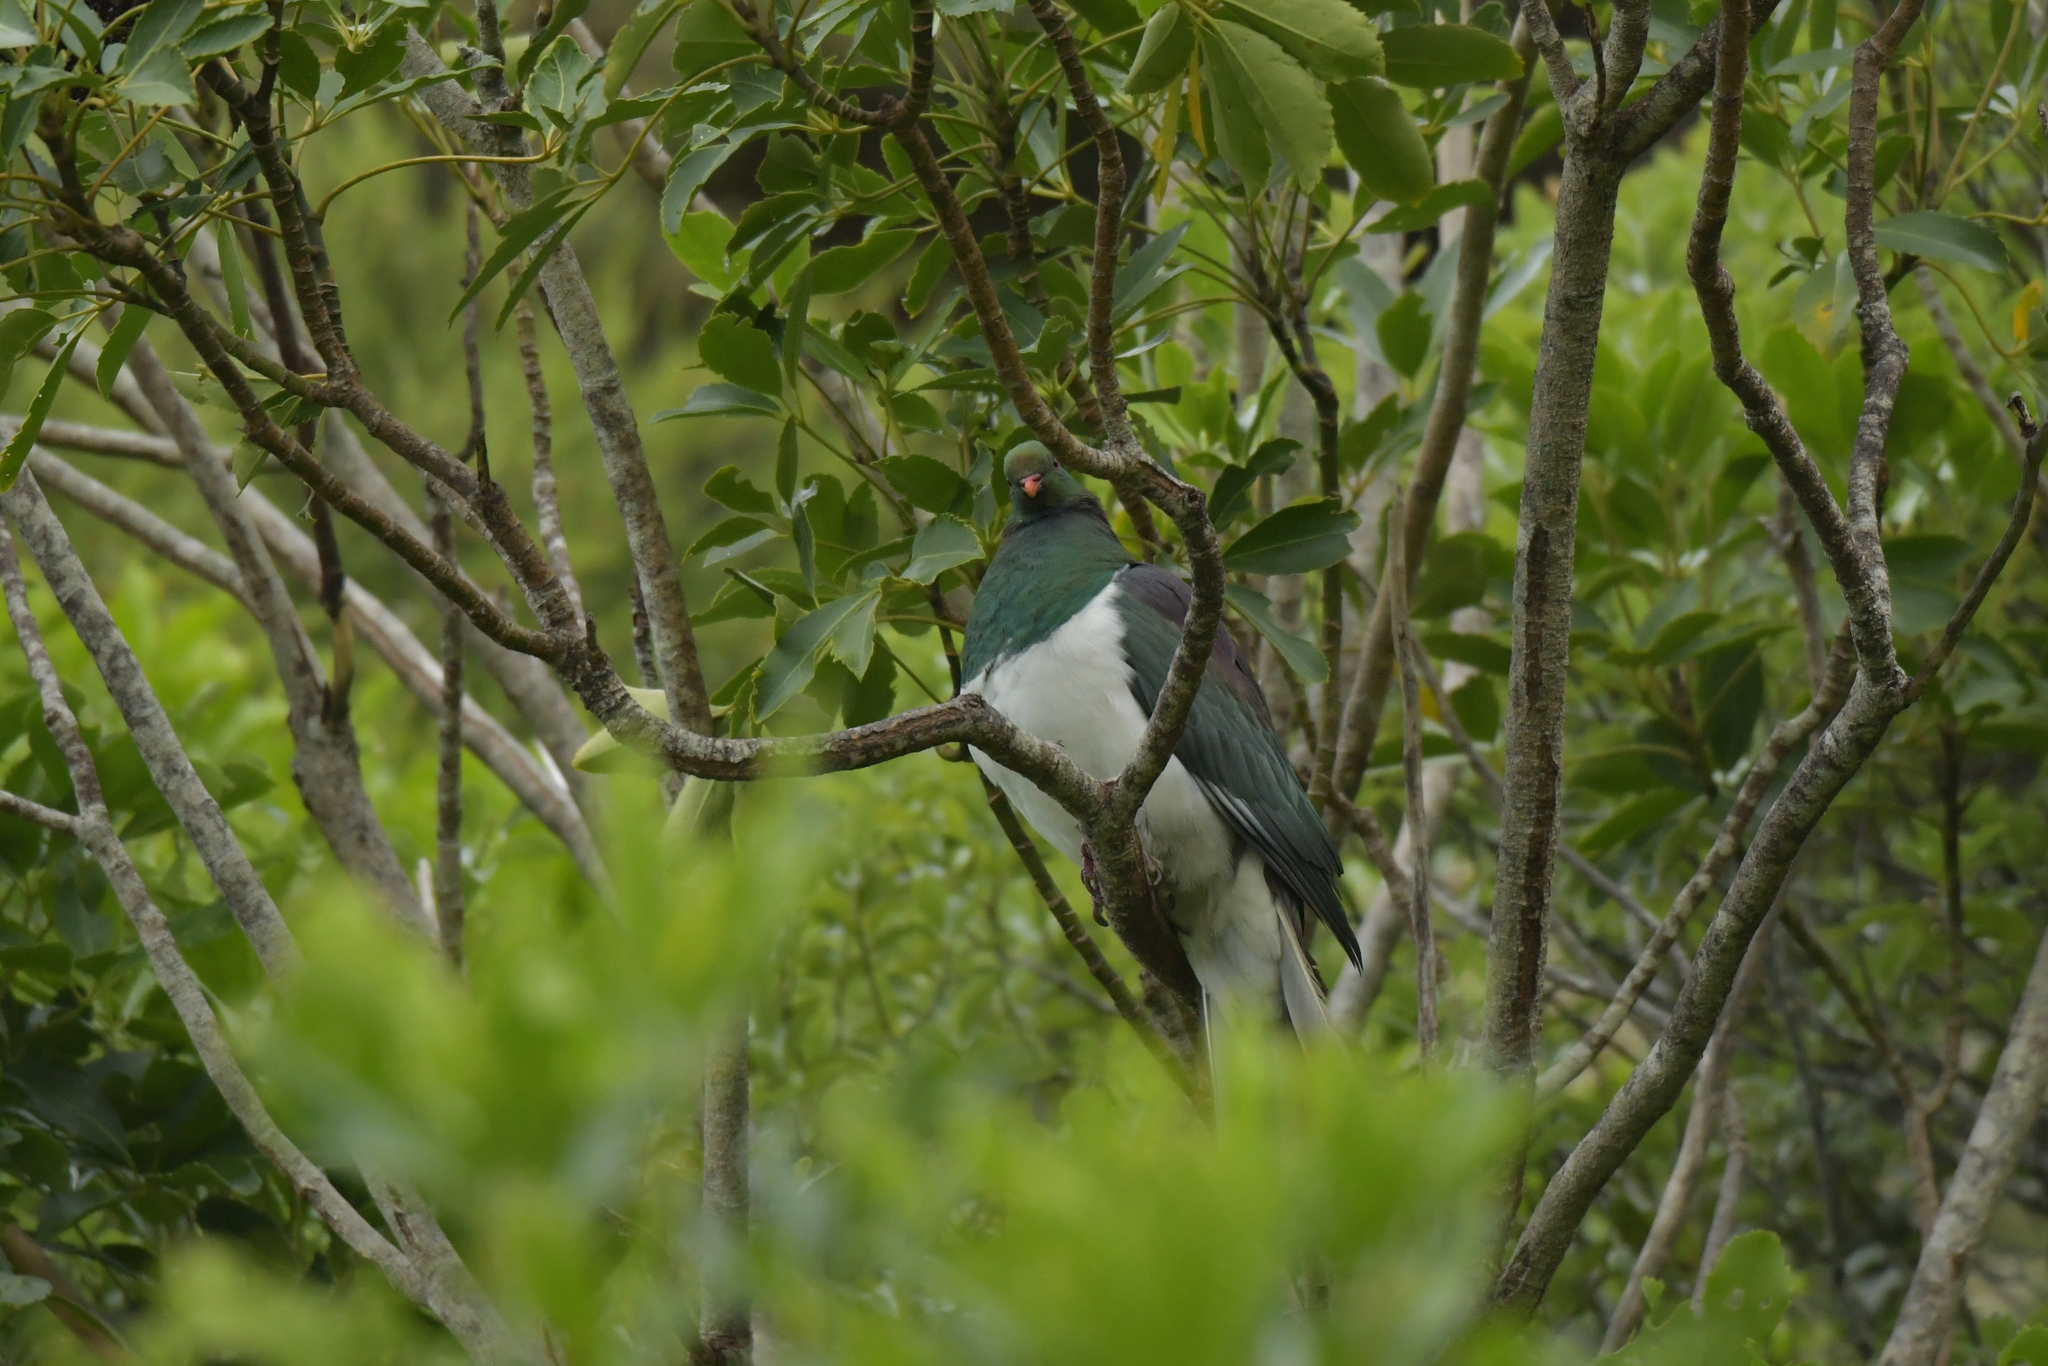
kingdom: Animalia
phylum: Chordata
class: Aves
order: Columbiformes
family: Columbidae
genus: Hemiphaga
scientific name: Hemiphaga novaeseelandiae
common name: New zealand pigeon
